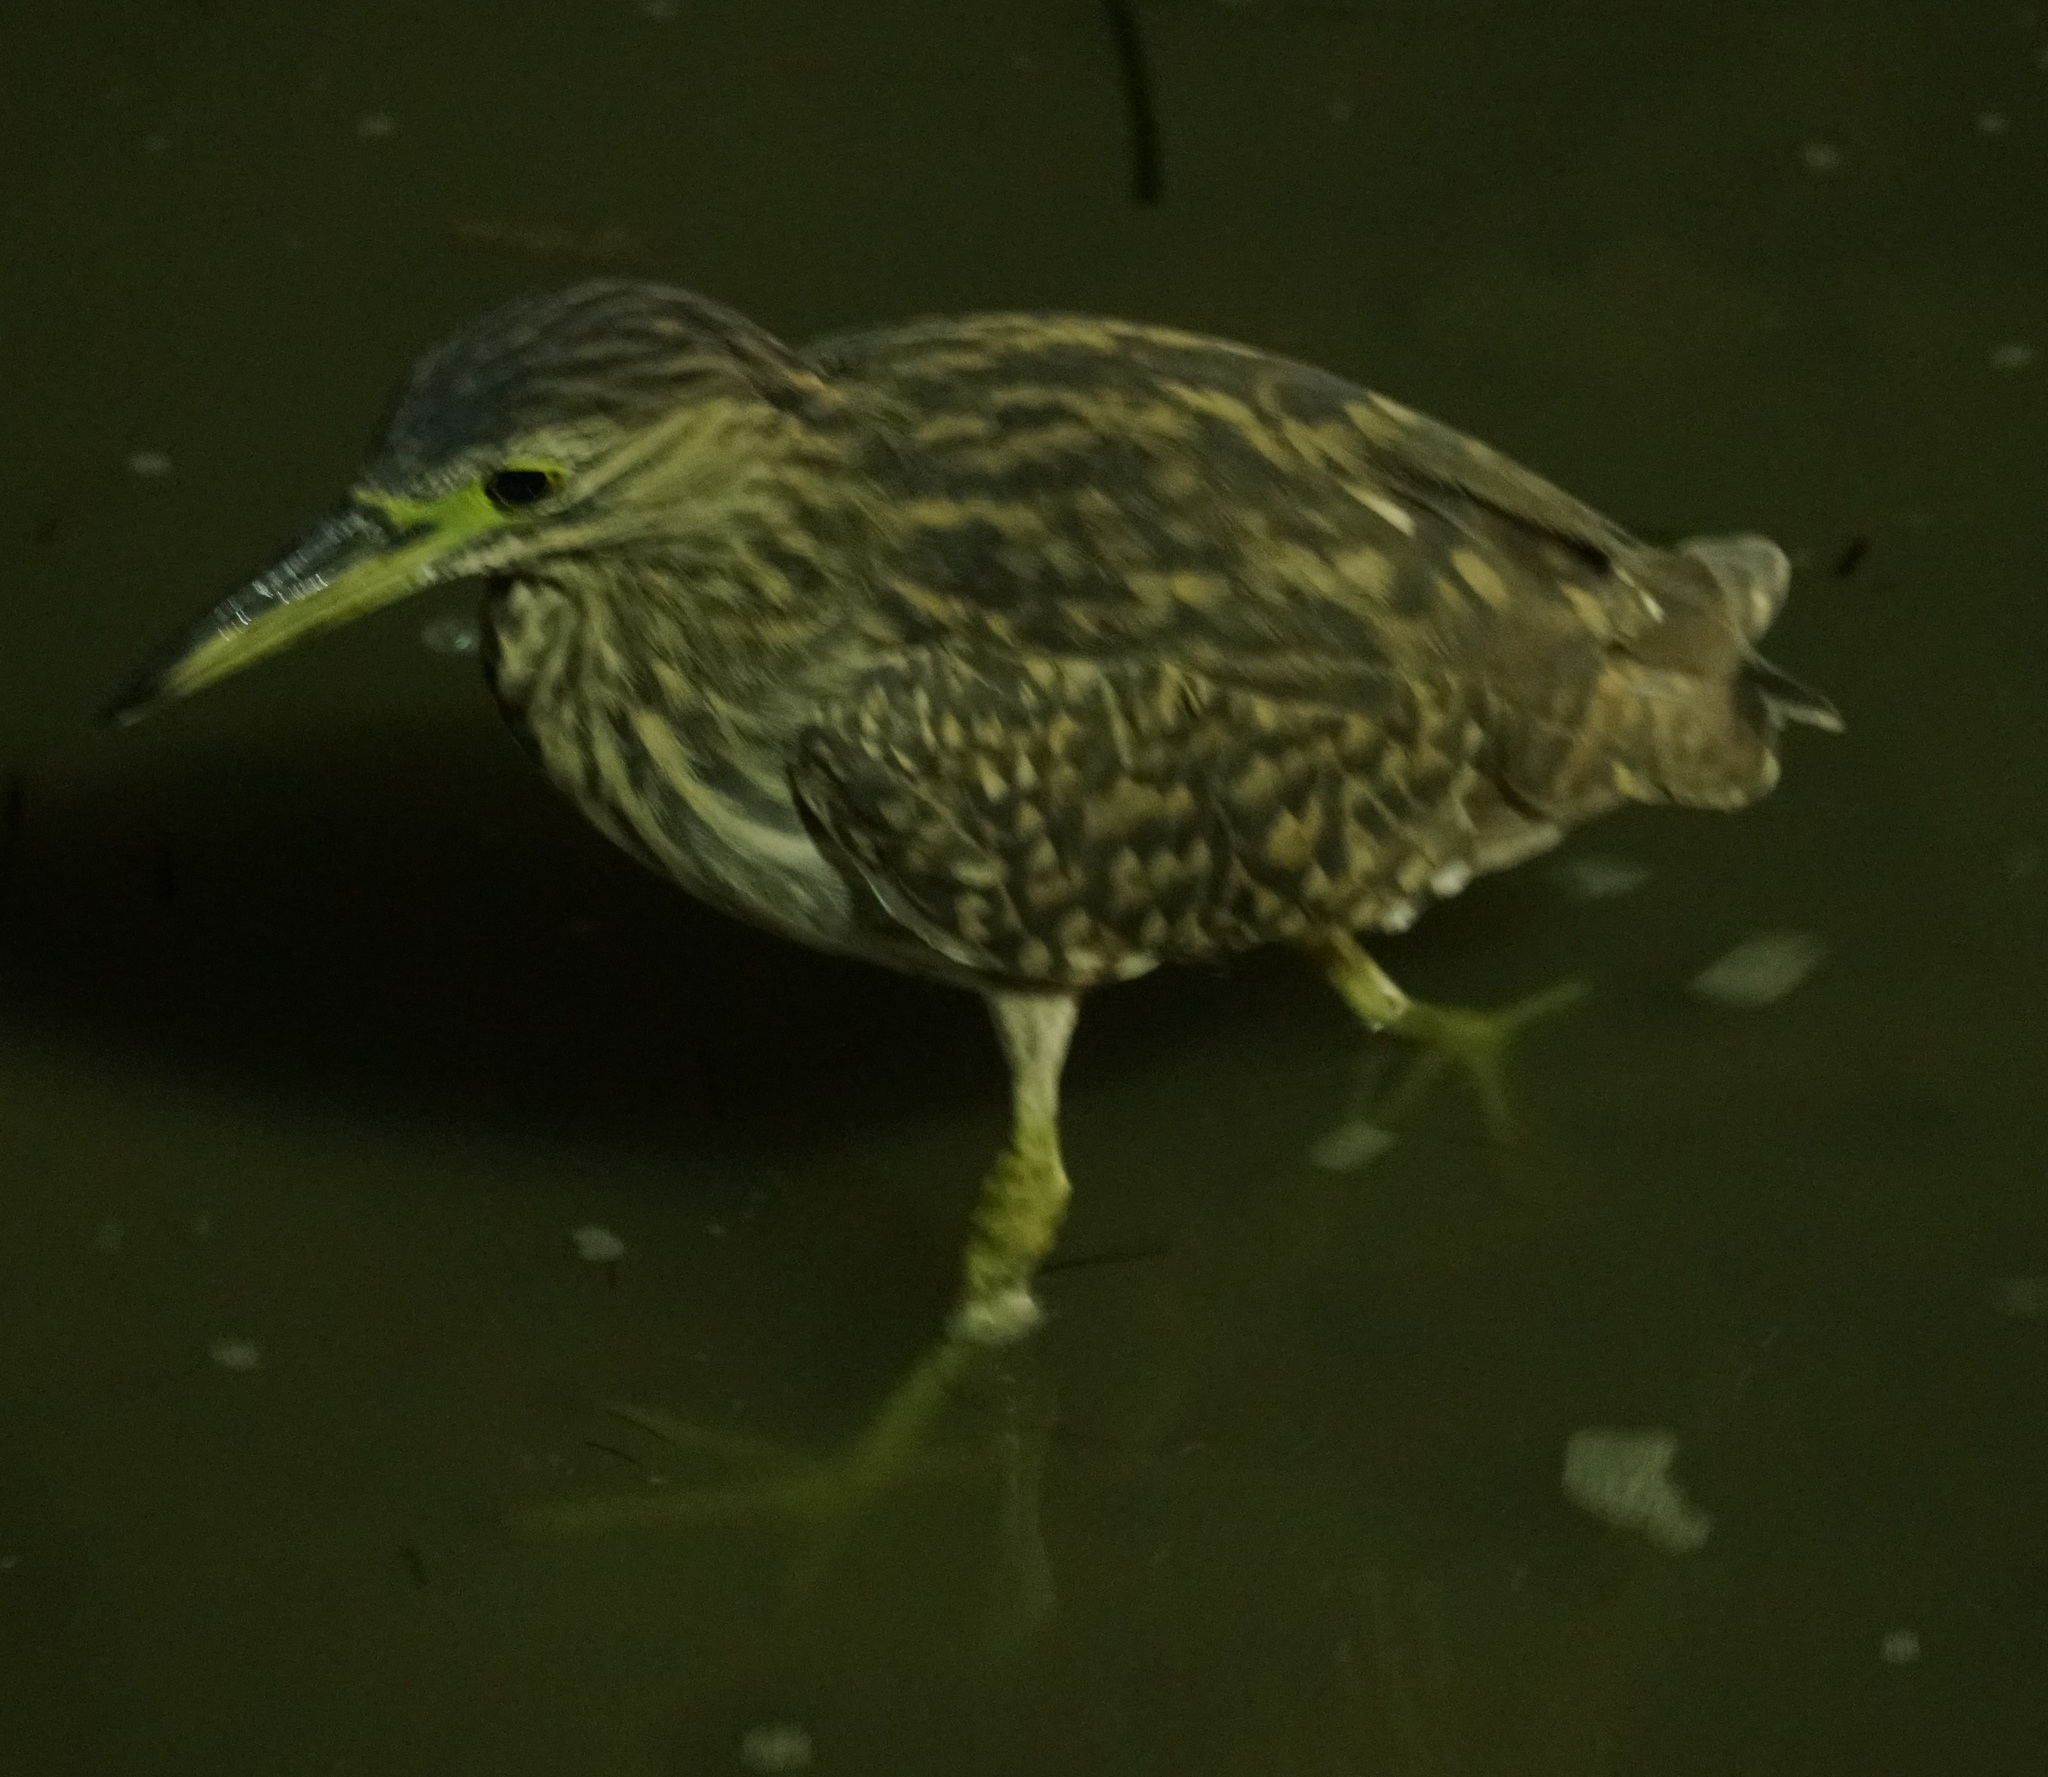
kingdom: Animalia
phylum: Chordata
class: Aves
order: Pelecaniformes
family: Ardeidae
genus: Nycticorax
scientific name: Nycticorax caledonicus
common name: Rufous night-heron
